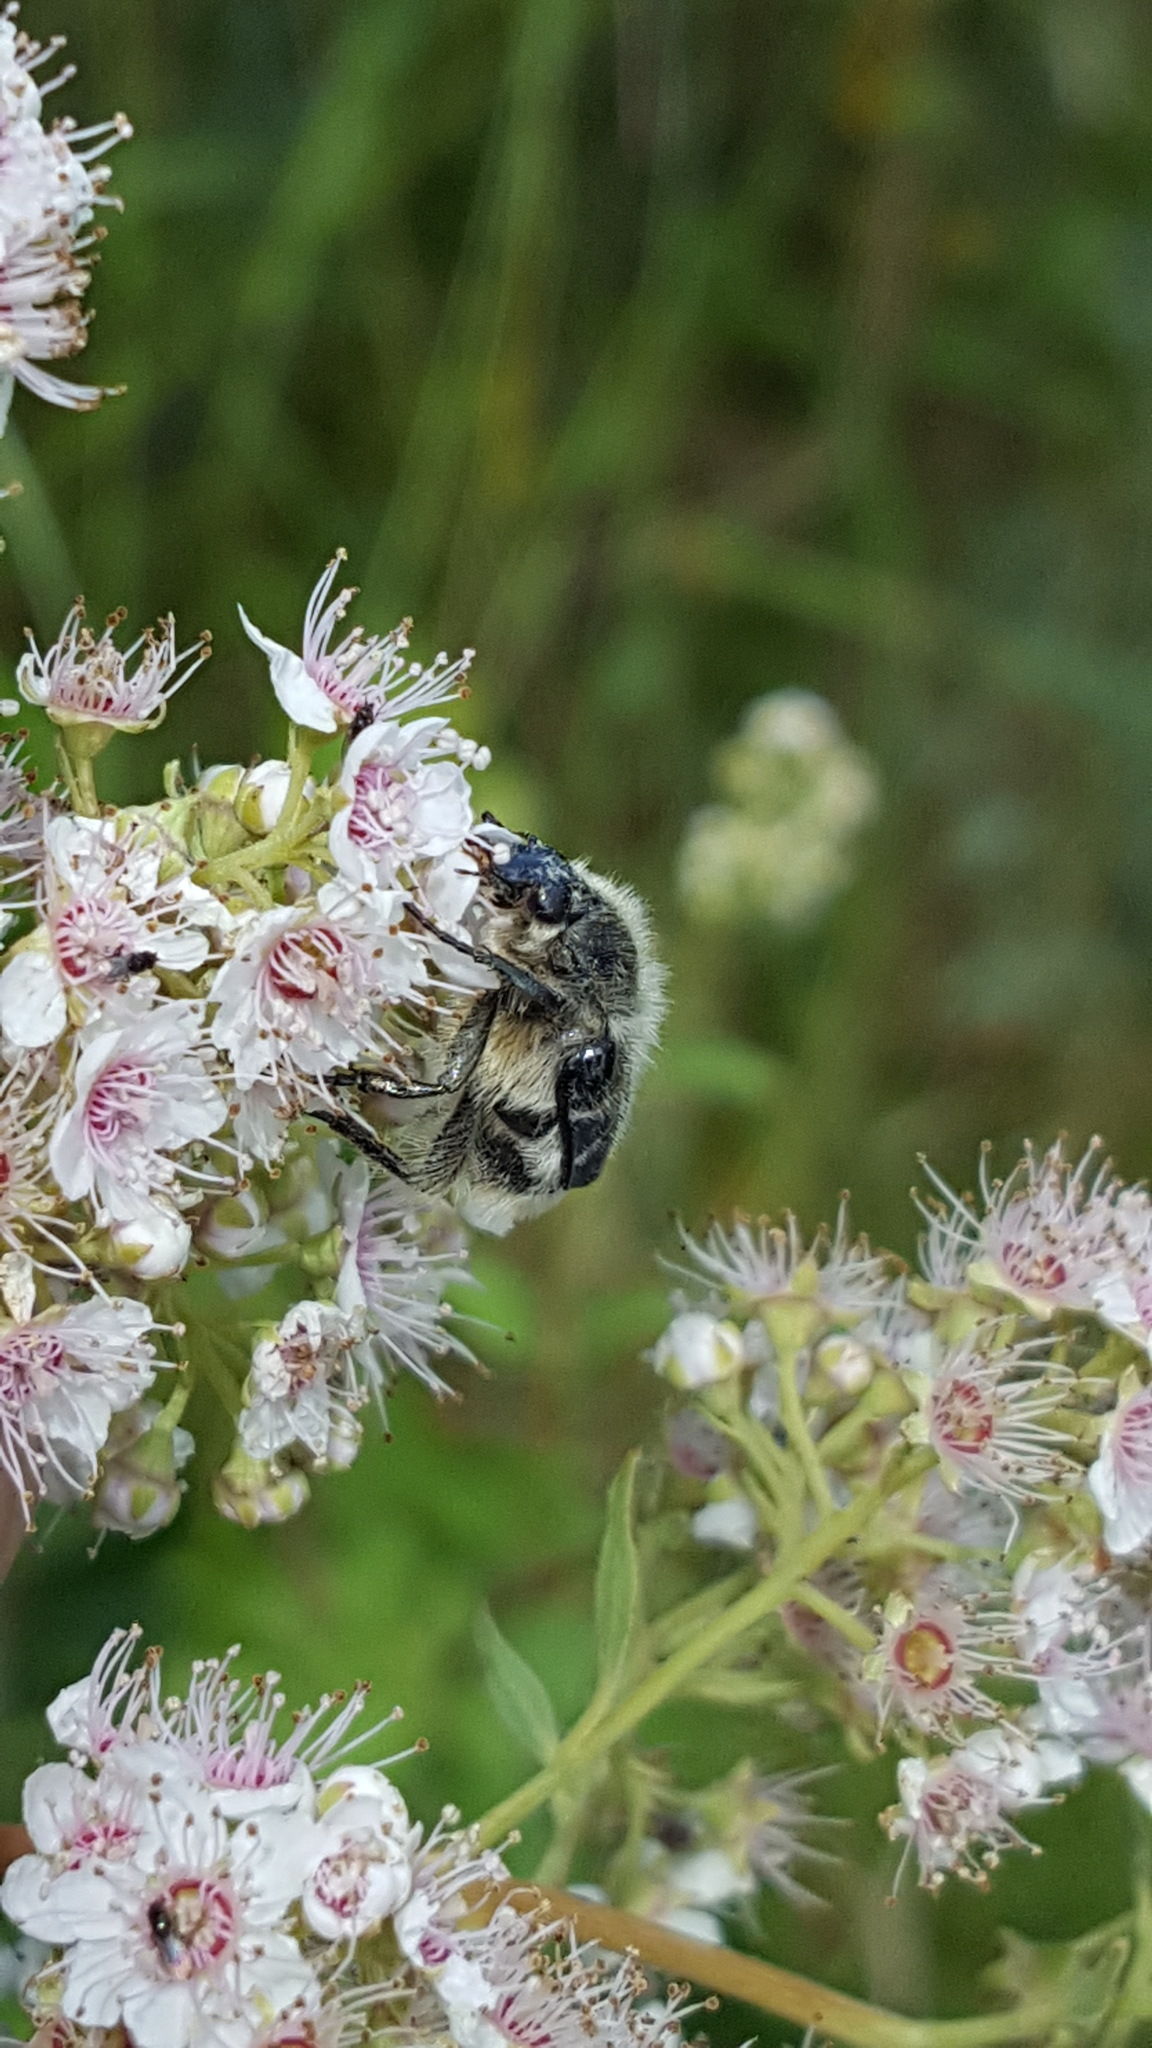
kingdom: Animalia
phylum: Arthropoda
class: Insecta
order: Coleoptera
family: Scarabaeidae
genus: Trichiotinus
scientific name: Trichiotinus assimilis
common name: Bee-mimic beetle
